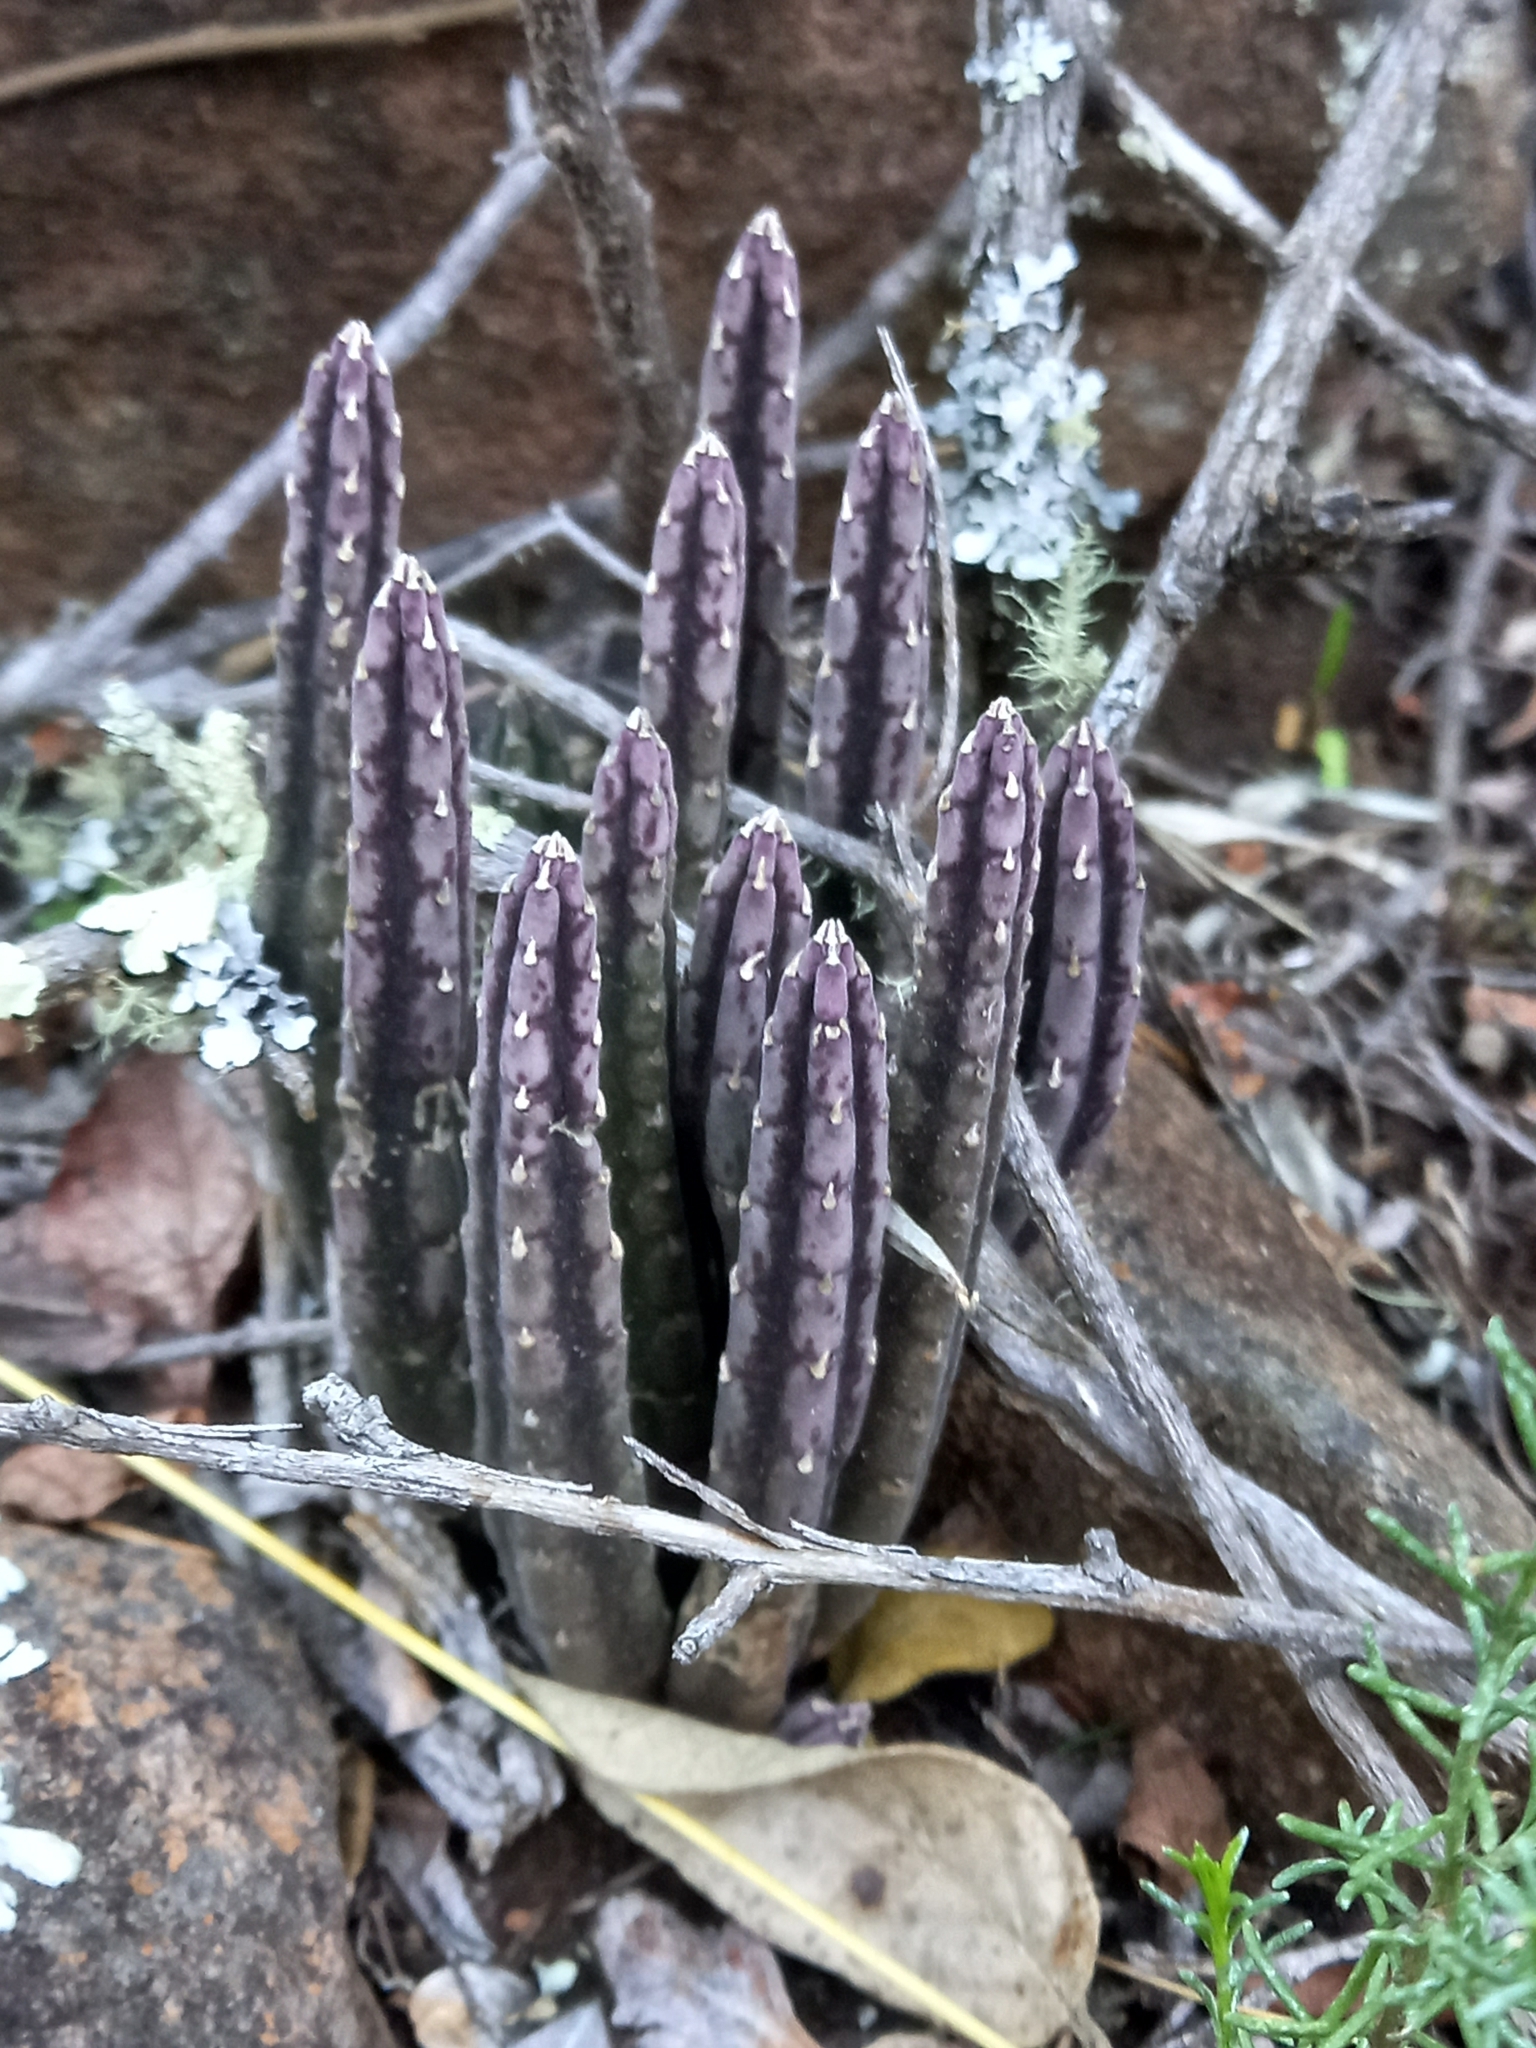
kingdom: Plantae
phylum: Tracheophyta
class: Magnoliopsida
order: Gentianales
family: Apocynaceae
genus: Ceropegia
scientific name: Ceropegia olivacea
